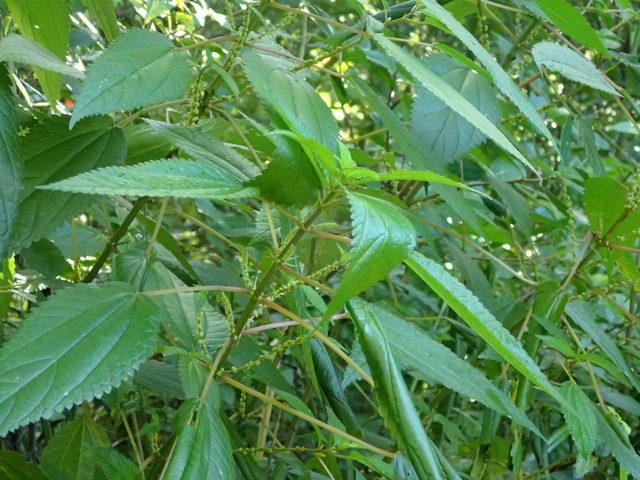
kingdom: Plantae
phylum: Tracheophyta
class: Magnoliopsida
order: Rosales
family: Urticaceae
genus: Boehmeria
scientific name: Boehmeria cylindrica
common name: Bog-hemp
